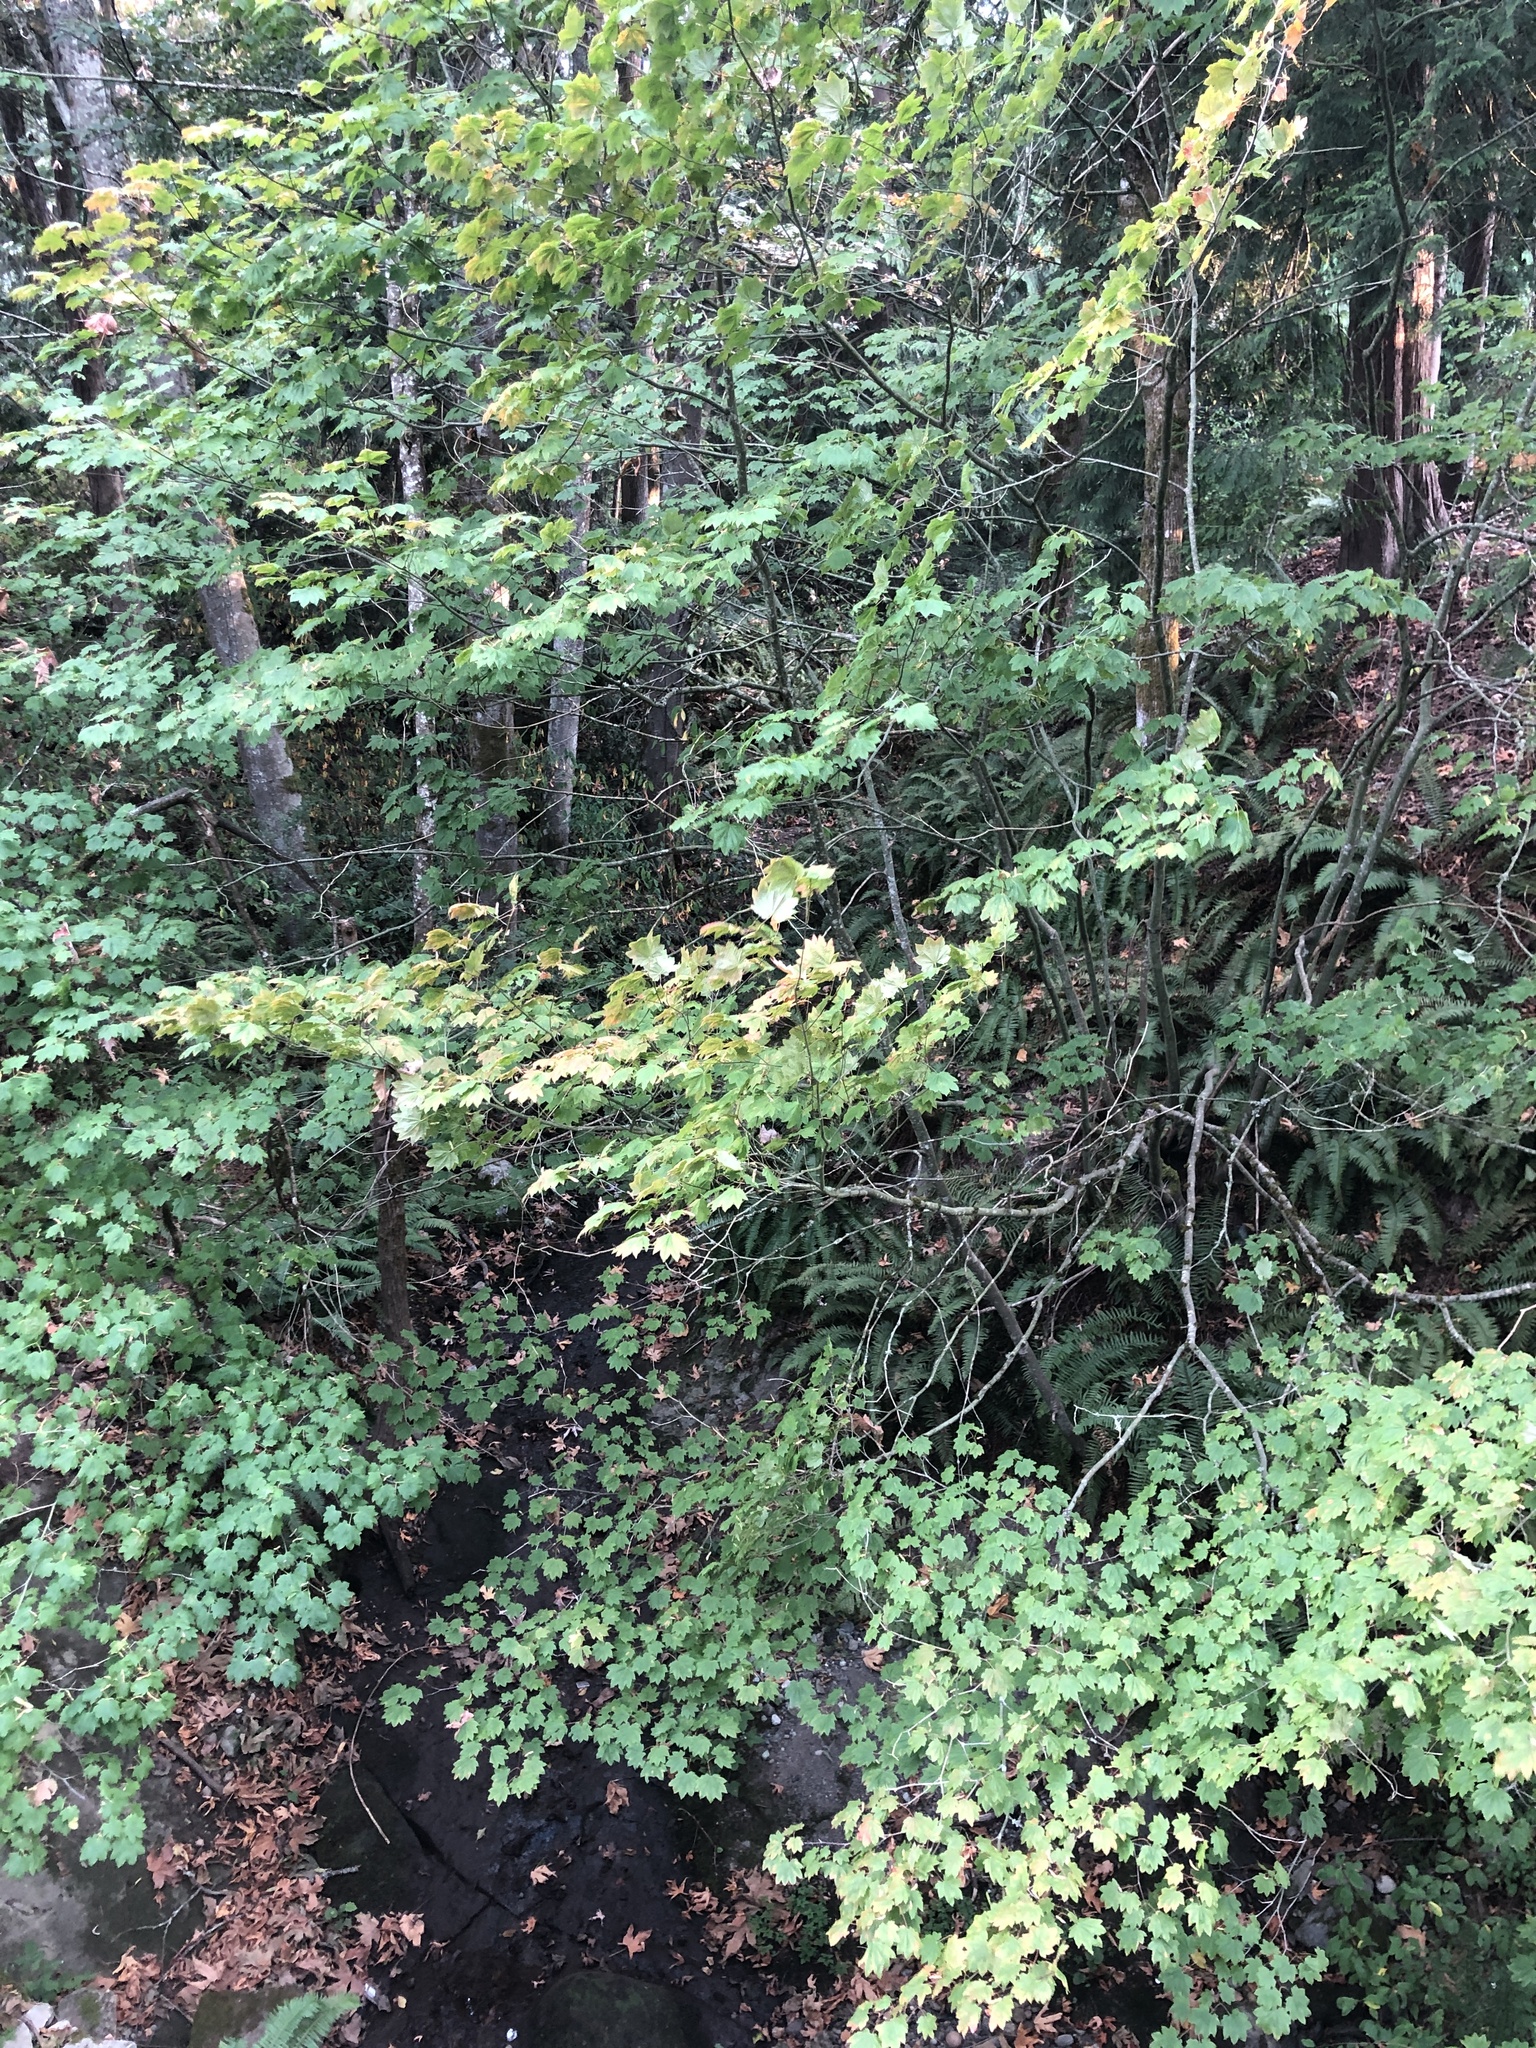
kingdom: Plantae
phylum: Tracheophyta
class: Magnoliopsida
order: Sapindales
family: Sapindaceae
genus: Acer
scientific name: Acer circinatum
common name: Vine maple
